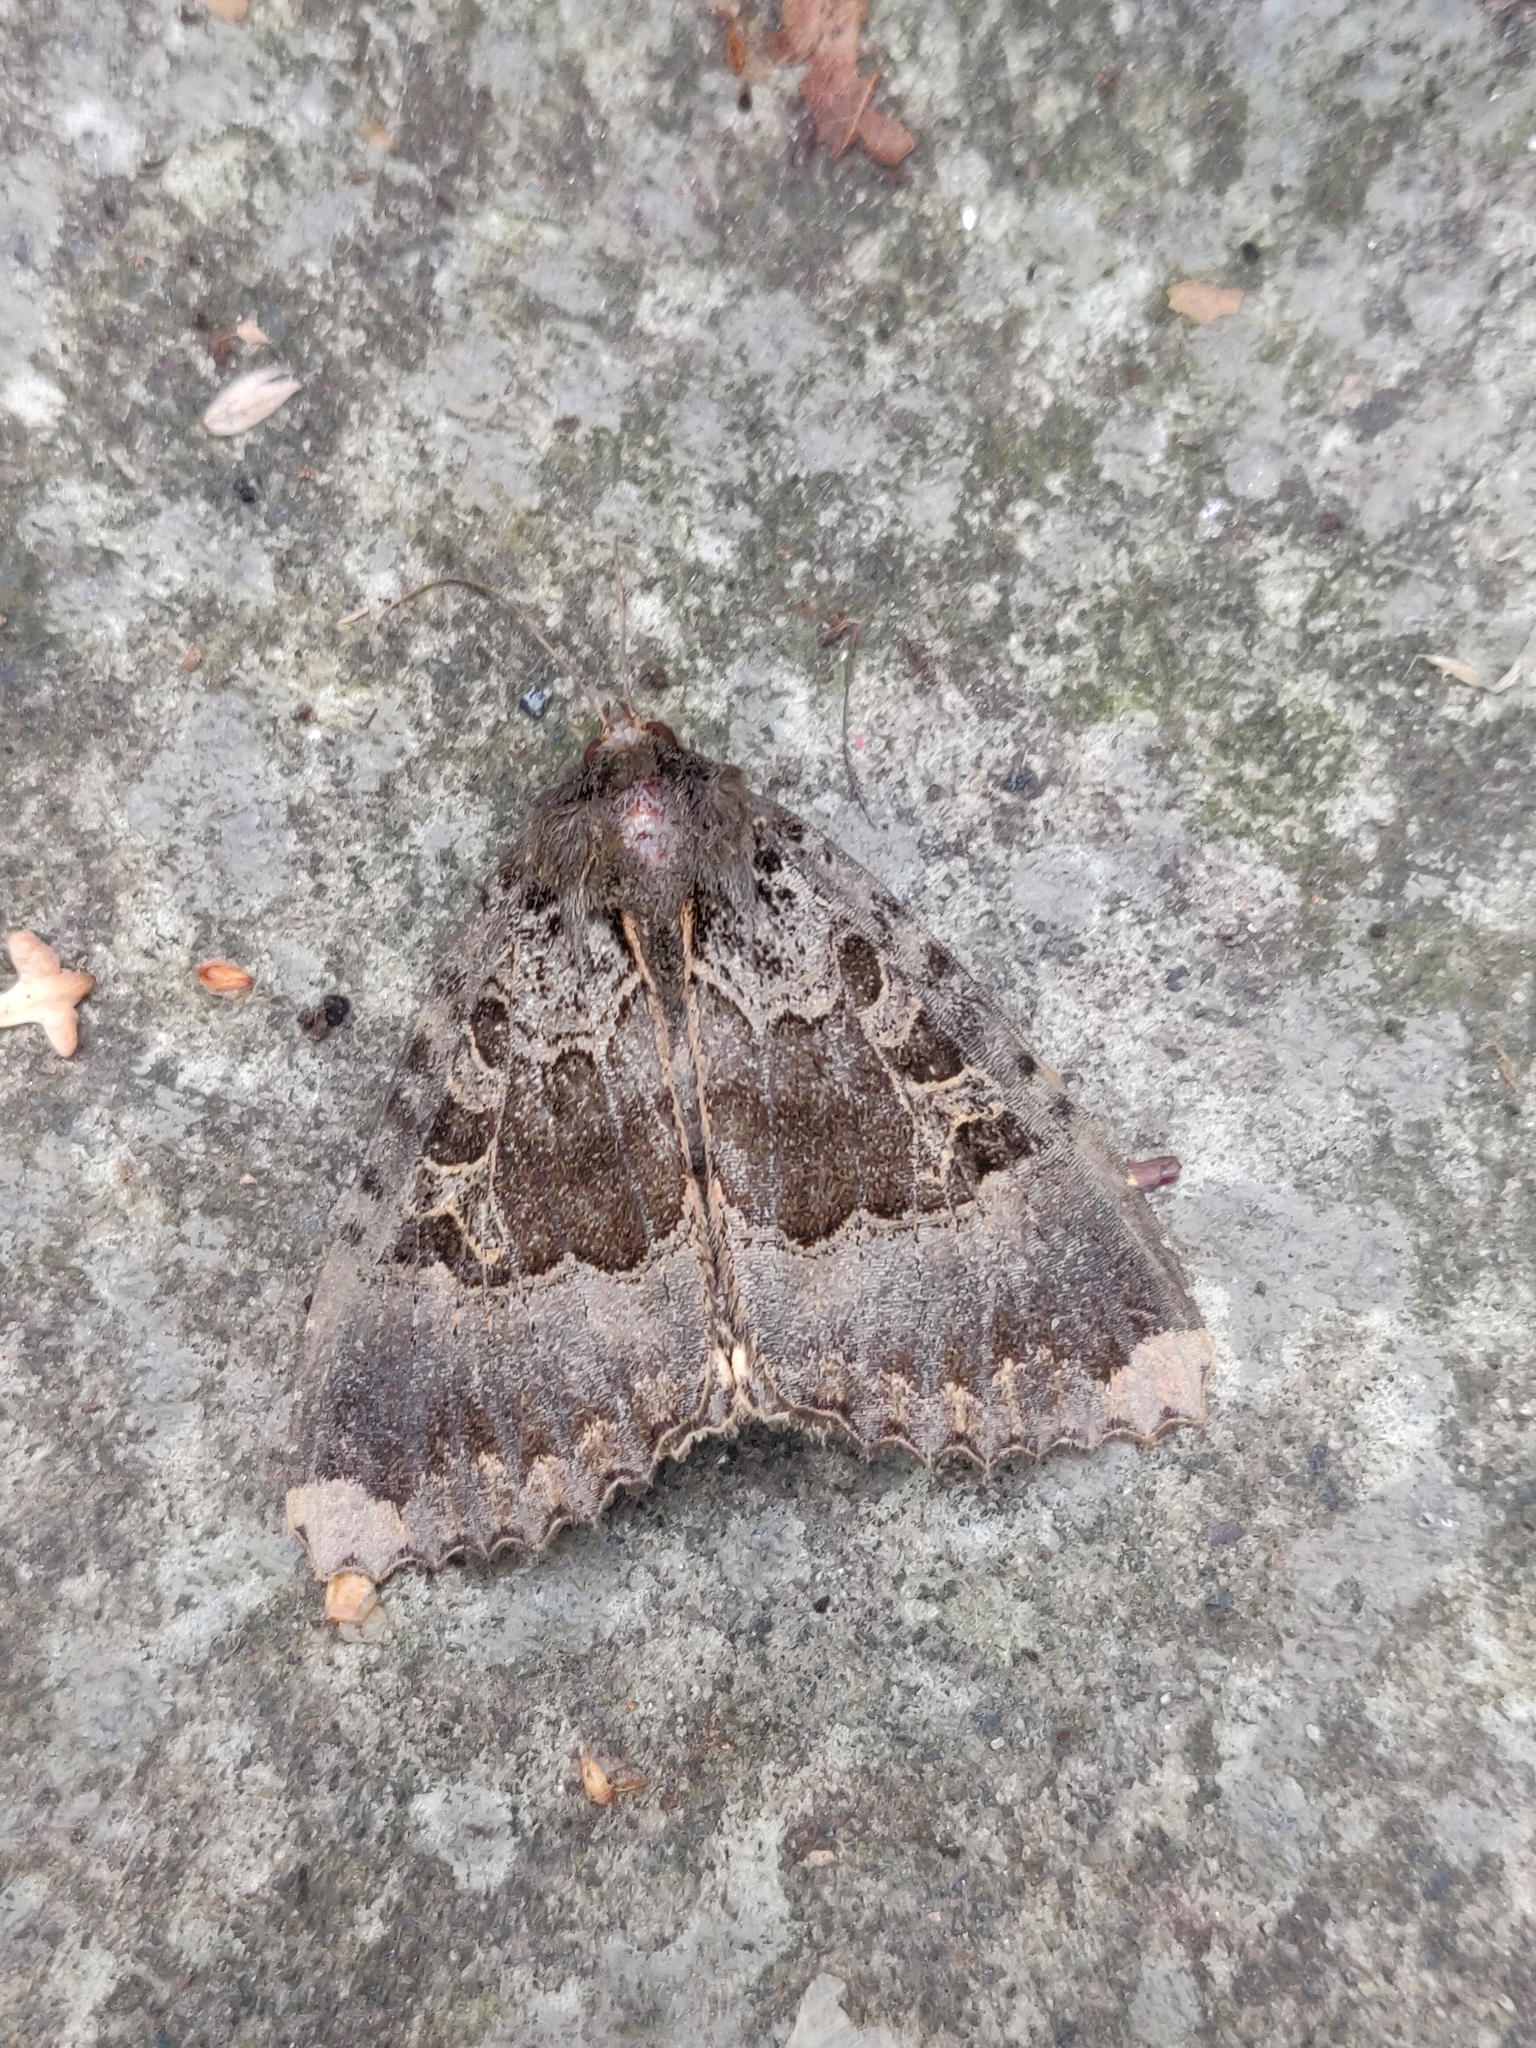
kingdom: Animalia
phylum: Arthropoda
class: Insecta
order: Lepidoptera
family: Noctuidae
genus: Mormo
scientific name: Mormo maura
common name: Old lady
